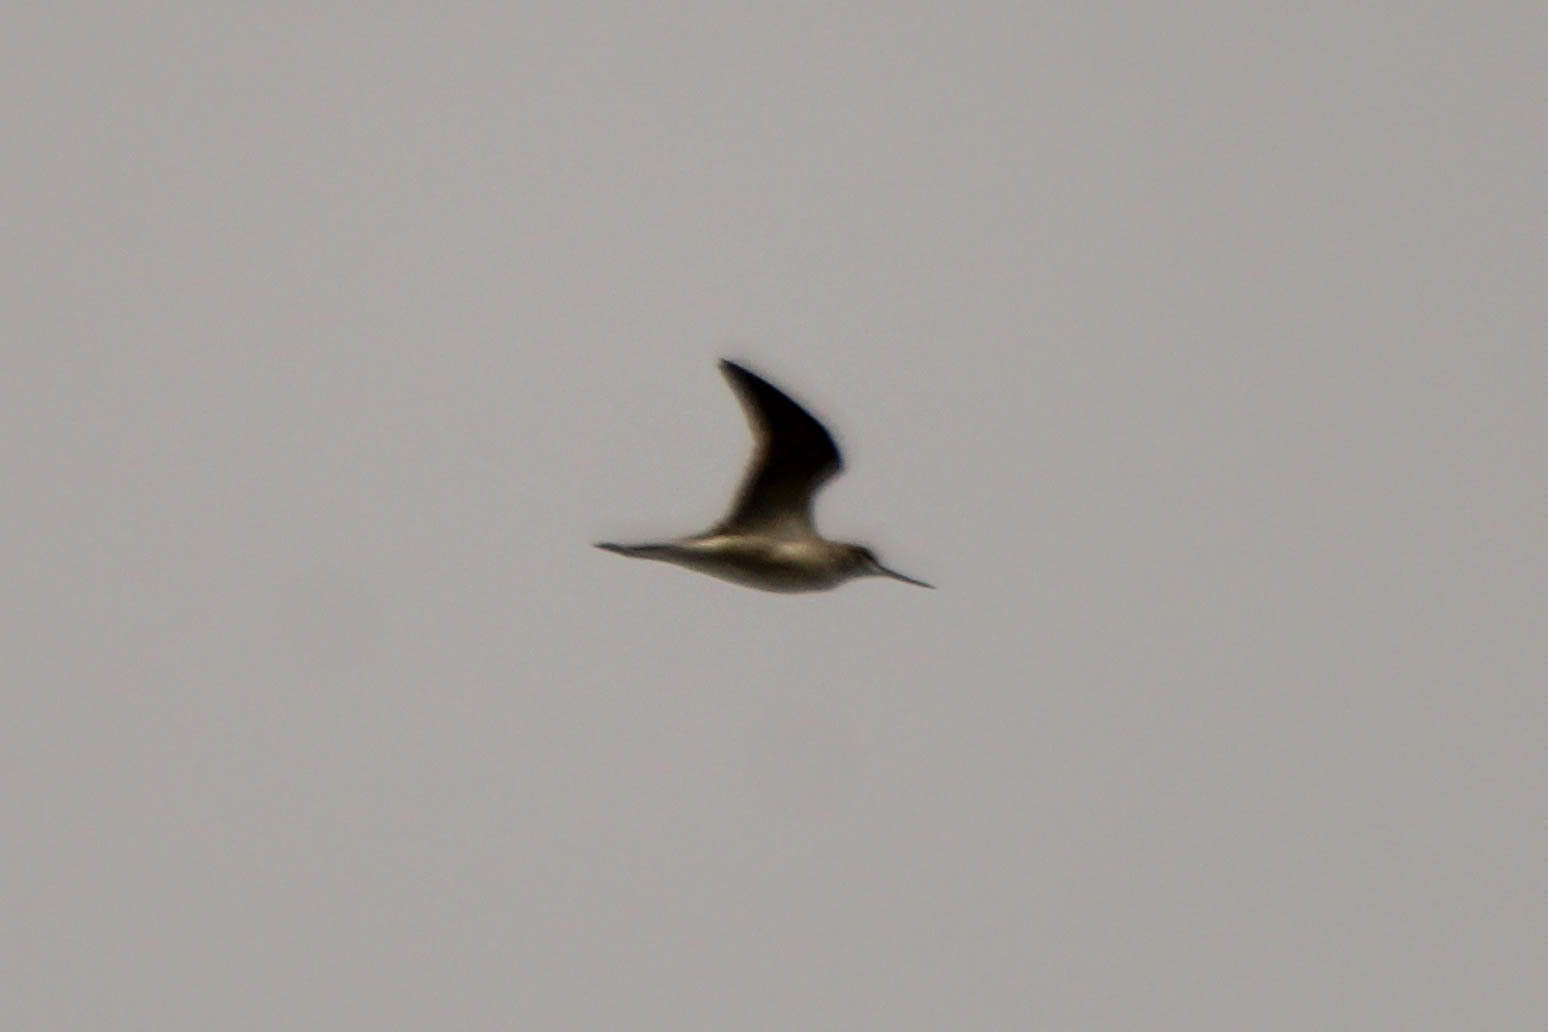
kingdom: Animalia
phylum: Chordata
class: Aves
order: Charadriiformes
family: Scolopacidae
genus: Tringa
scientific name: Tringa nebularia
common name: Common greenshank
